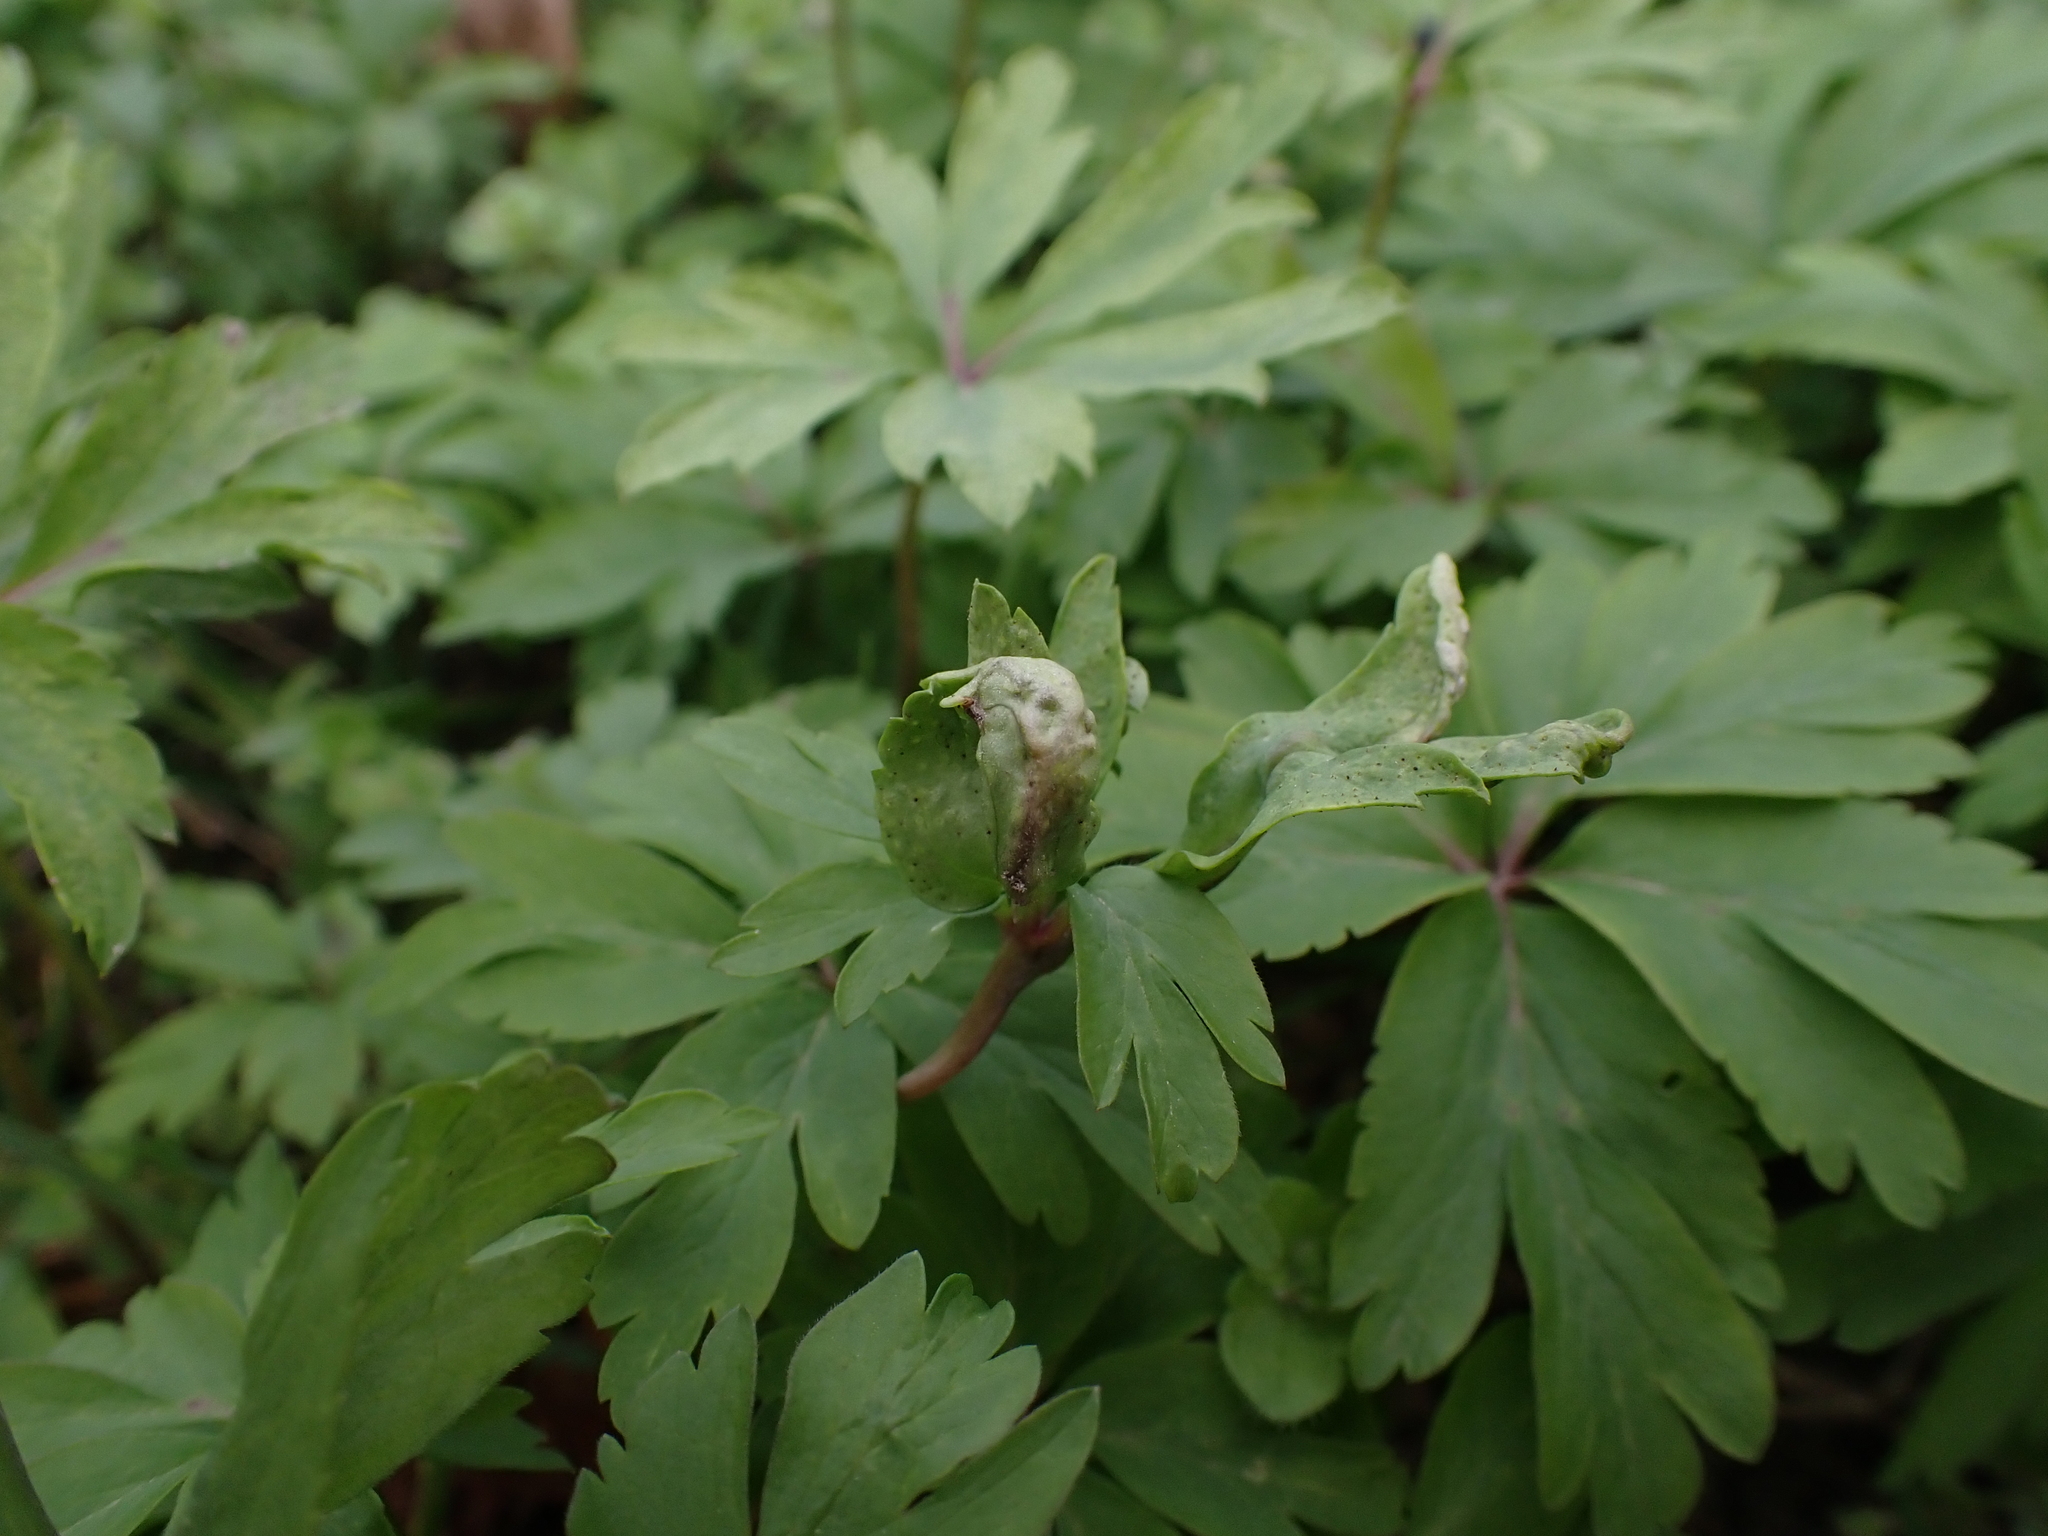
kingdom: Fungi
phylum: Basidiomycota
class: Ustilaginomycetes
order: Urocystidales
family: Urocystidaceae
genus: Urocystis
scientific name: Urocystis anemones
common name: Anemone smut
